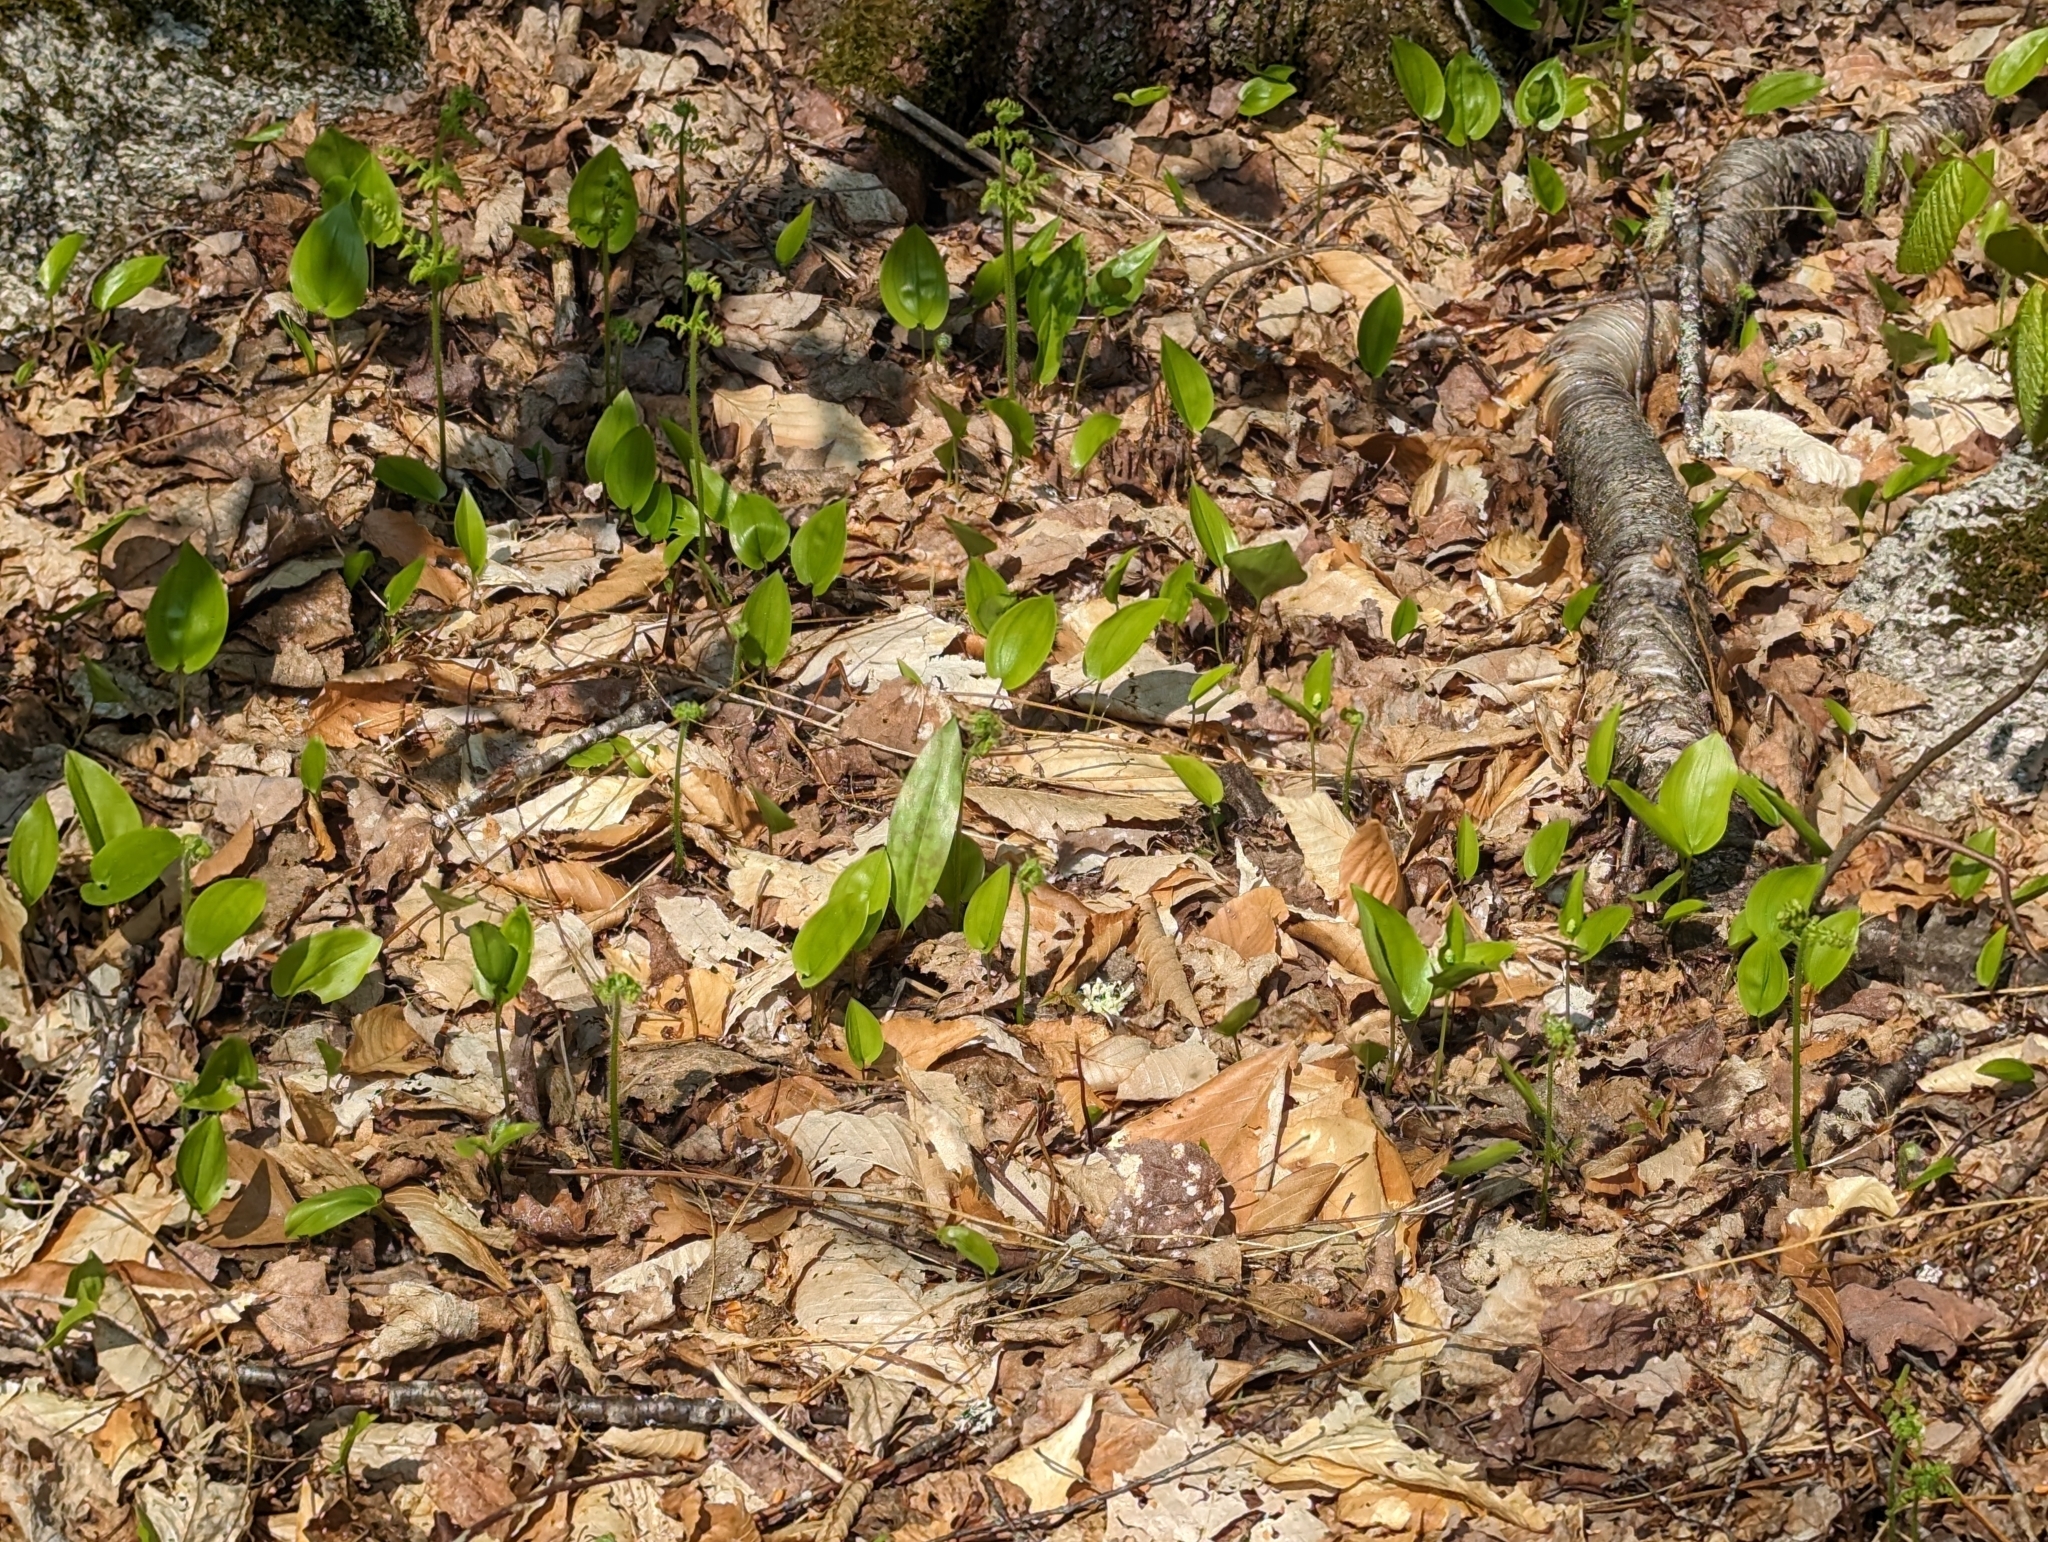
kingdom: Plantae
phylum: Tracheophyta
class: Liliopsida
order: Asparagales
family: Asparagaceae
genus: Maianthemum
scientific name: Maianthemum canadense
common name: False lily-of-the-valley
